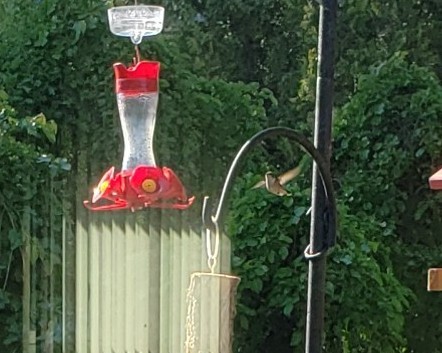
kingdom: Animalia
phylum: Chordata
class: Aves
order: Apodiformes
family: Trochilidae
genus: Archilochus
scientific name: Archilochus colubris
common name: Ruby-throated hummingbird
